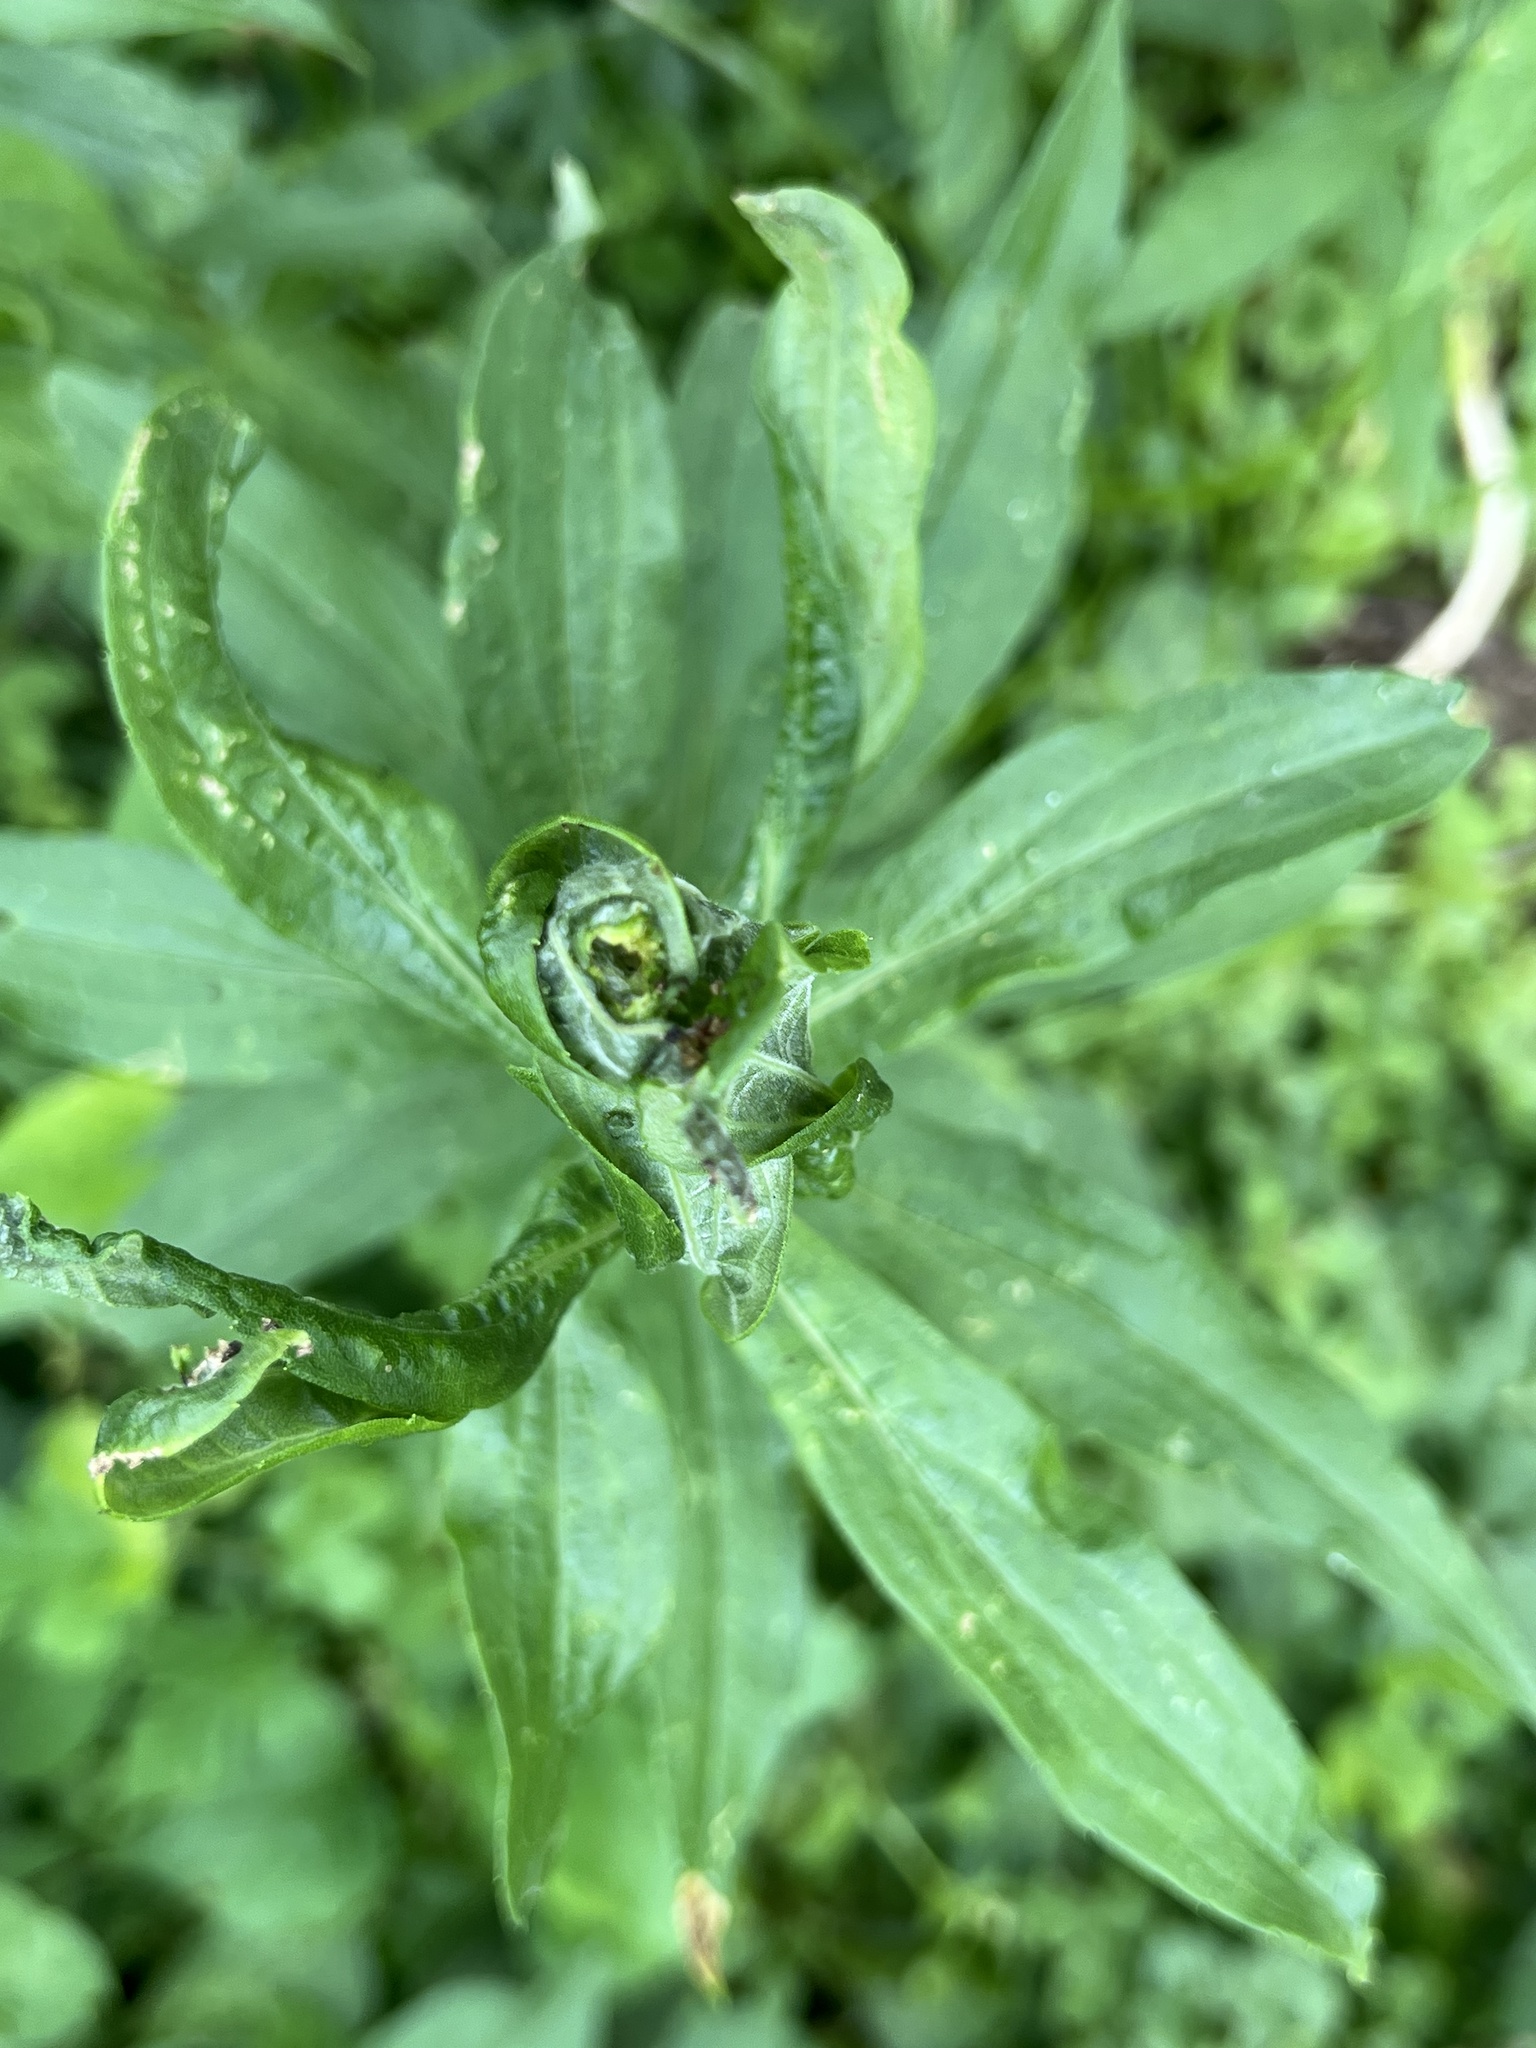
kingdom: Animalia
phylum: Arthropoda
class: Insecta
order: Diptera
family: Cecidomyiidae
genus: Asphondylia
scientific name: Asphondylia solidaginis
